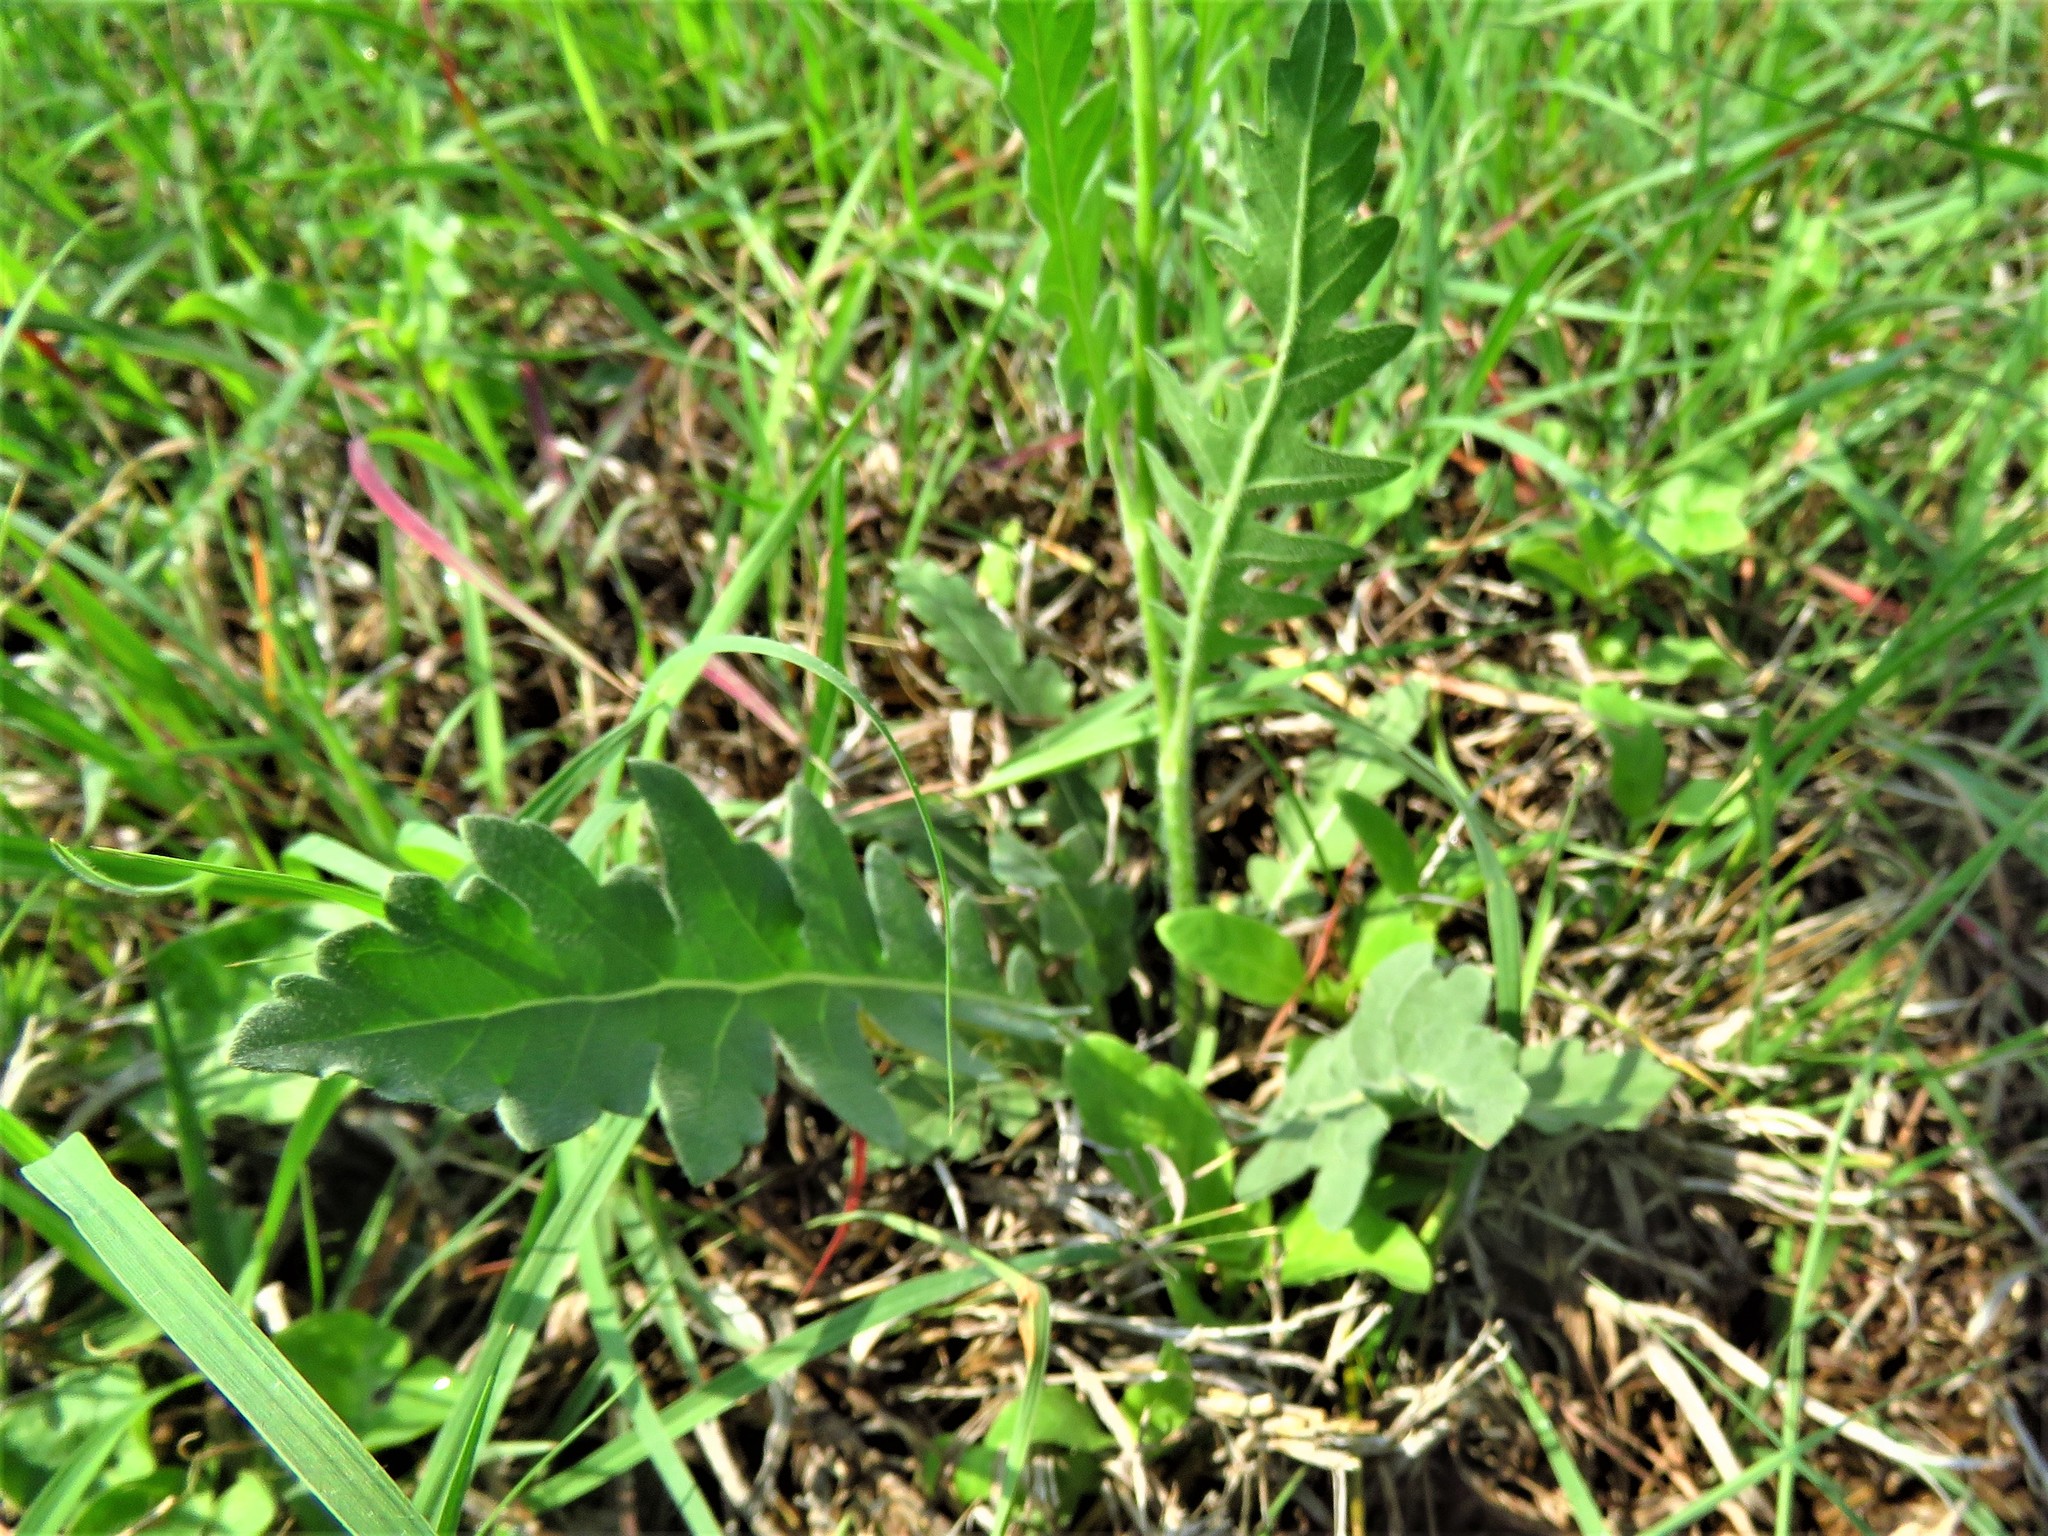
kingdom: Plantae
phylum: Tracheophyta
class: Magnoliopsida
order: Asterales
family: Asteraceae
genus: Engelmannia
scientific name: Engelmannia peristenia
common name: Engelmann's daisy
